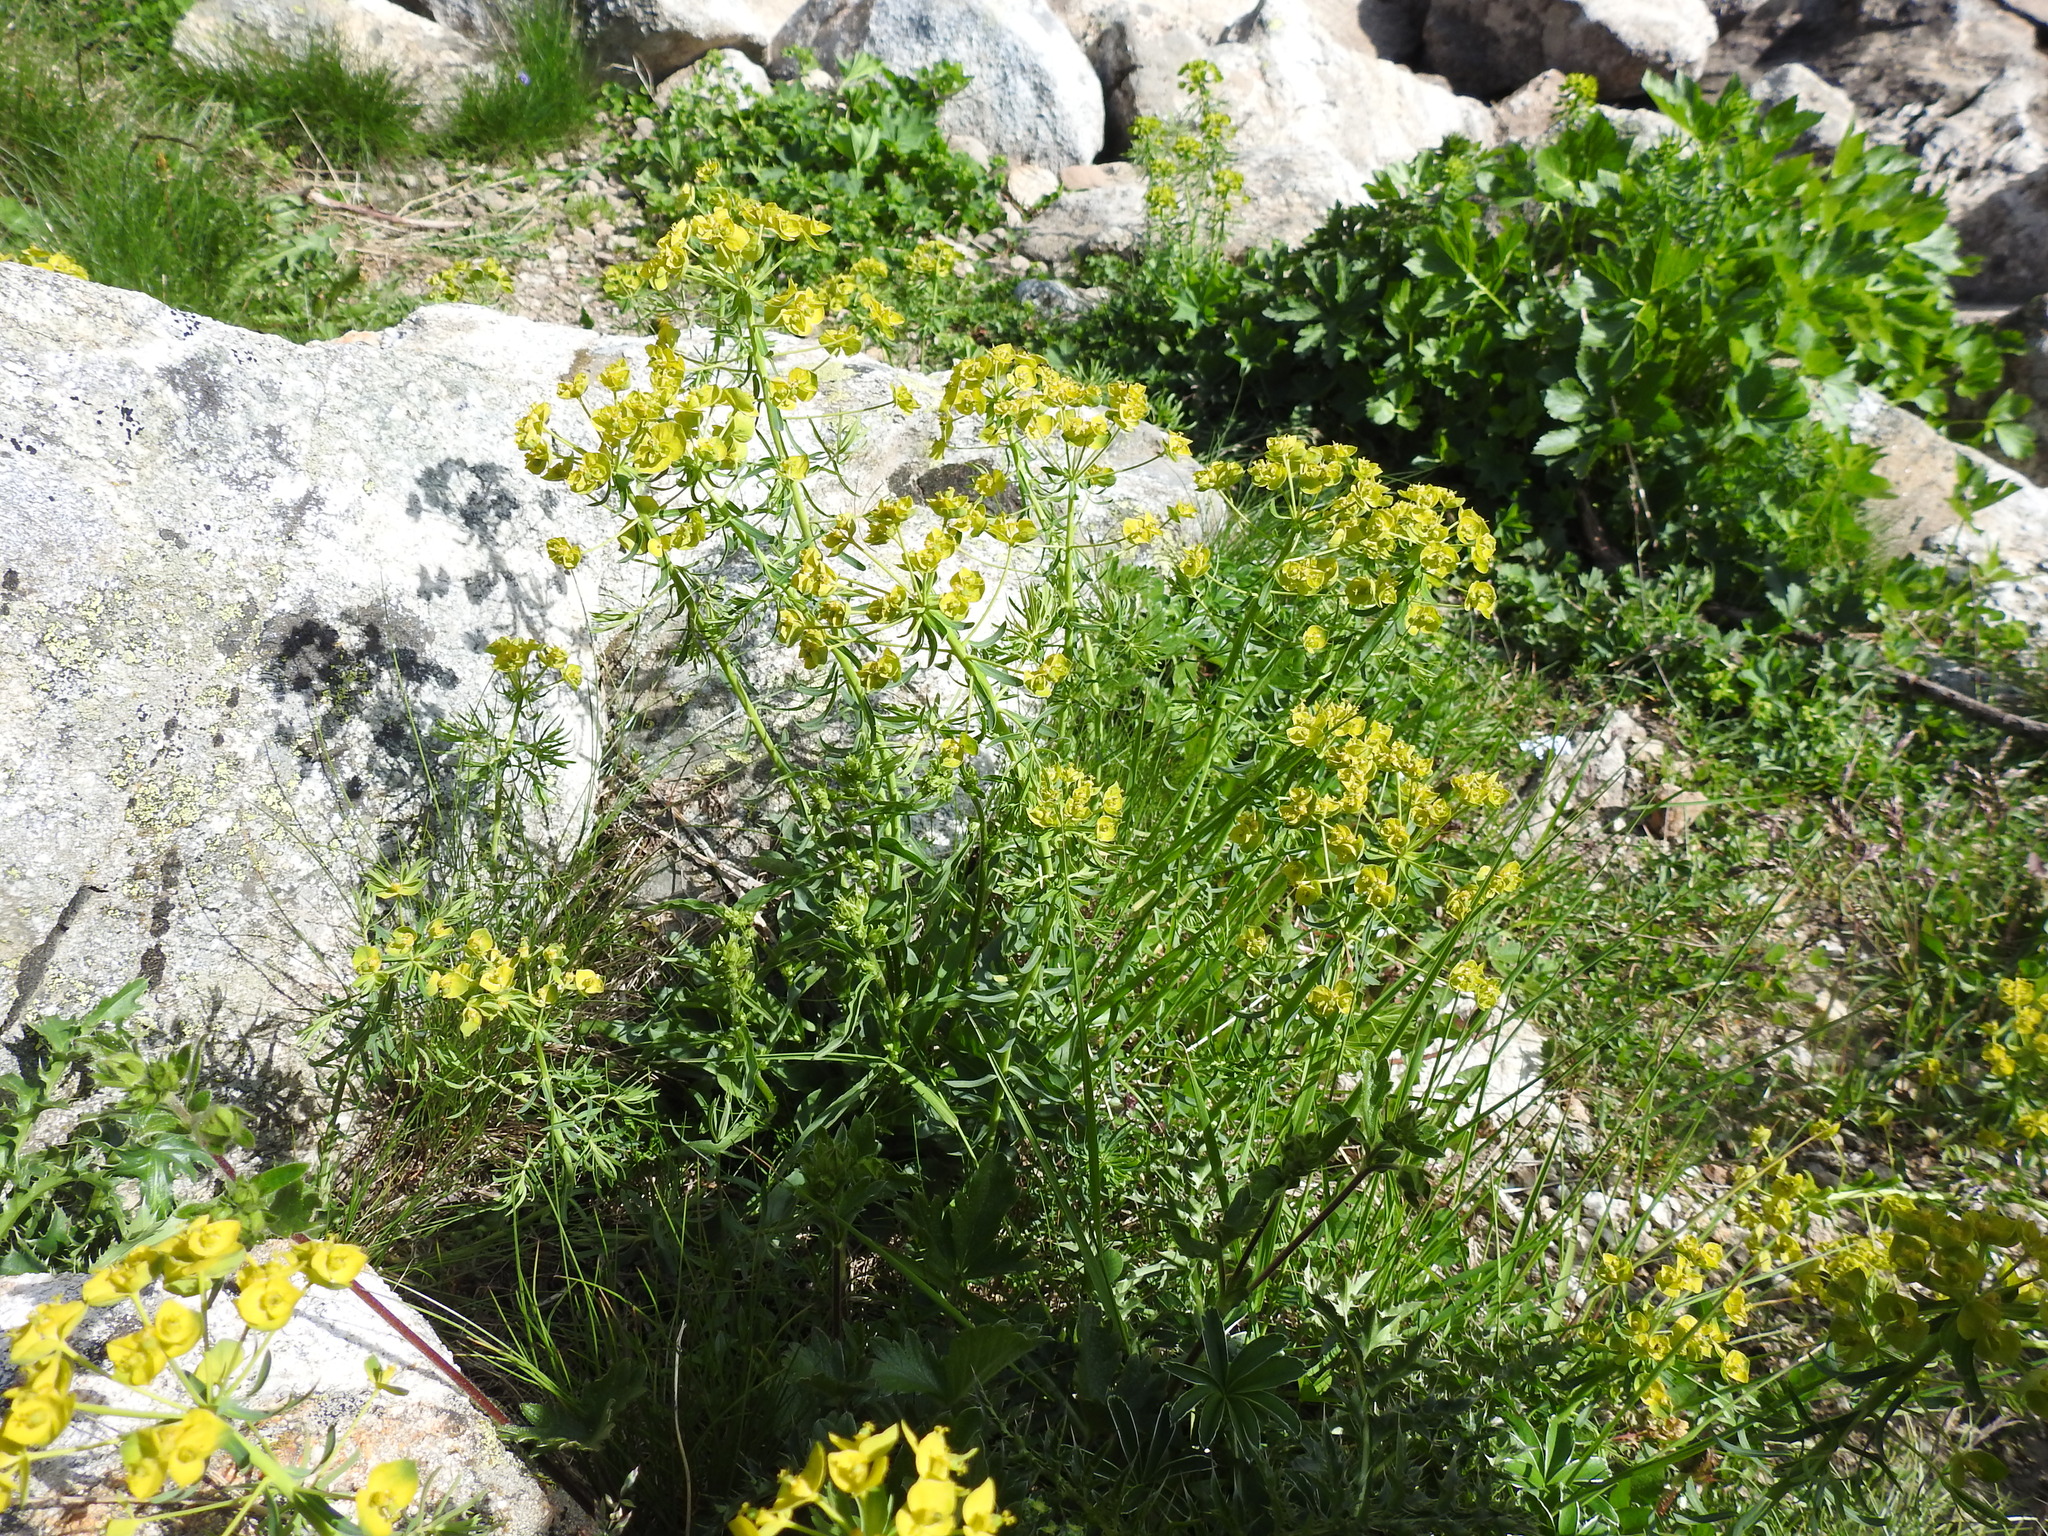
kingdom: Plantae
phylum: Tracheophyta
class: Magnoliopsida
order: Malpighiales
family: Euphorbiaceae
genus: Euphorbia
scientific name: Euphorbia cyparissias
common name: Cypress spurge
